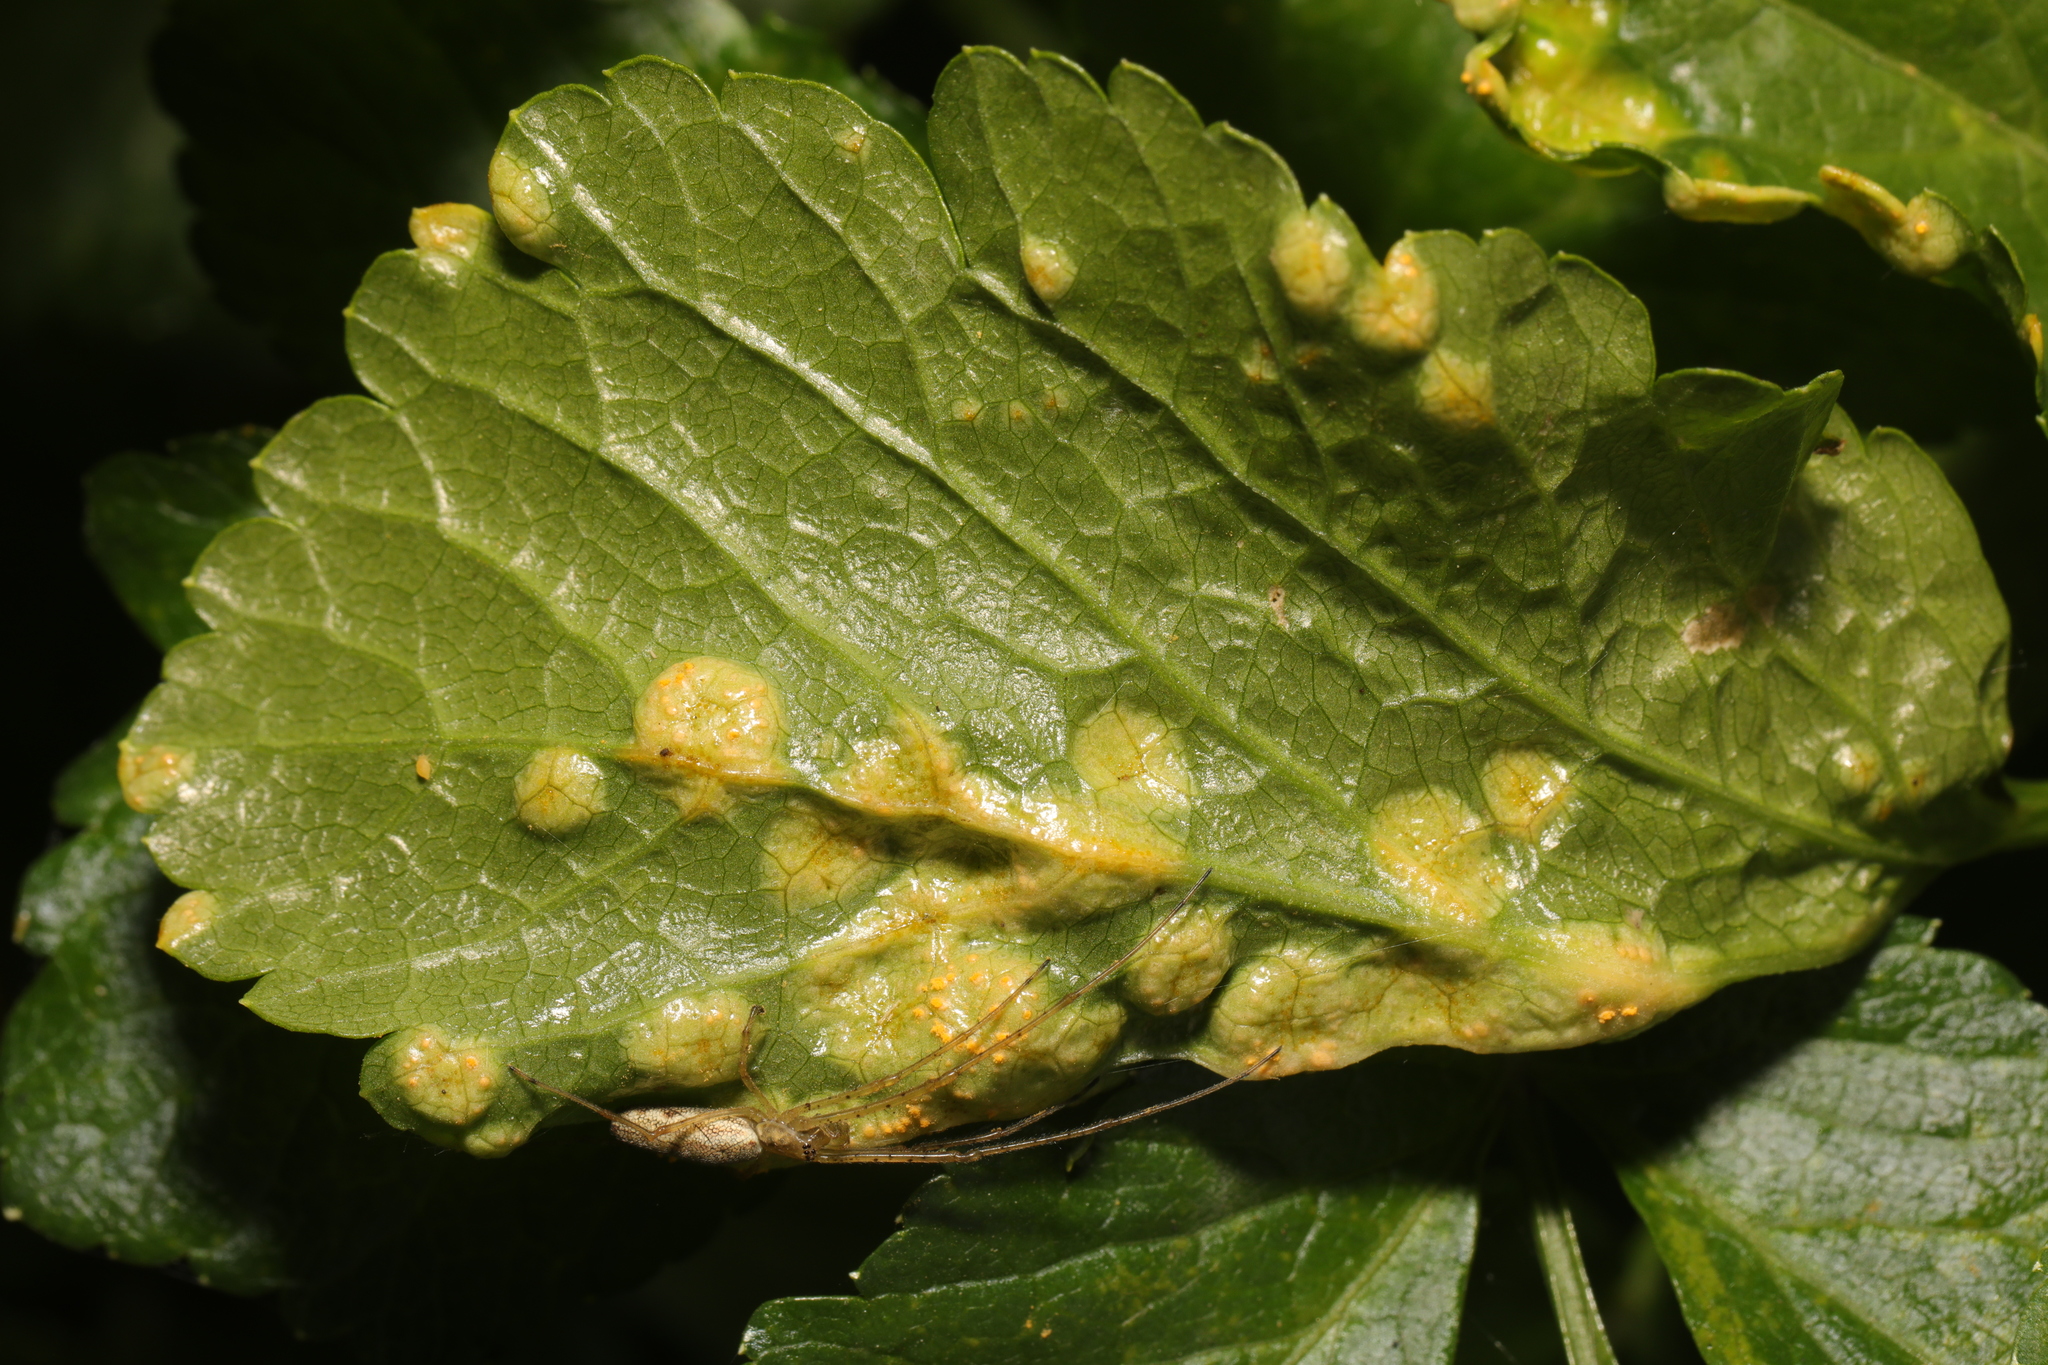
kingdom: Fungi
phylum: Basidiomycota
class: Pucciniomycetes
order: Pucciniales
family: Pucciniaceae
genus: Puccinia
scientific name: Puccinia smyrnii
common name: Alexanders rust
